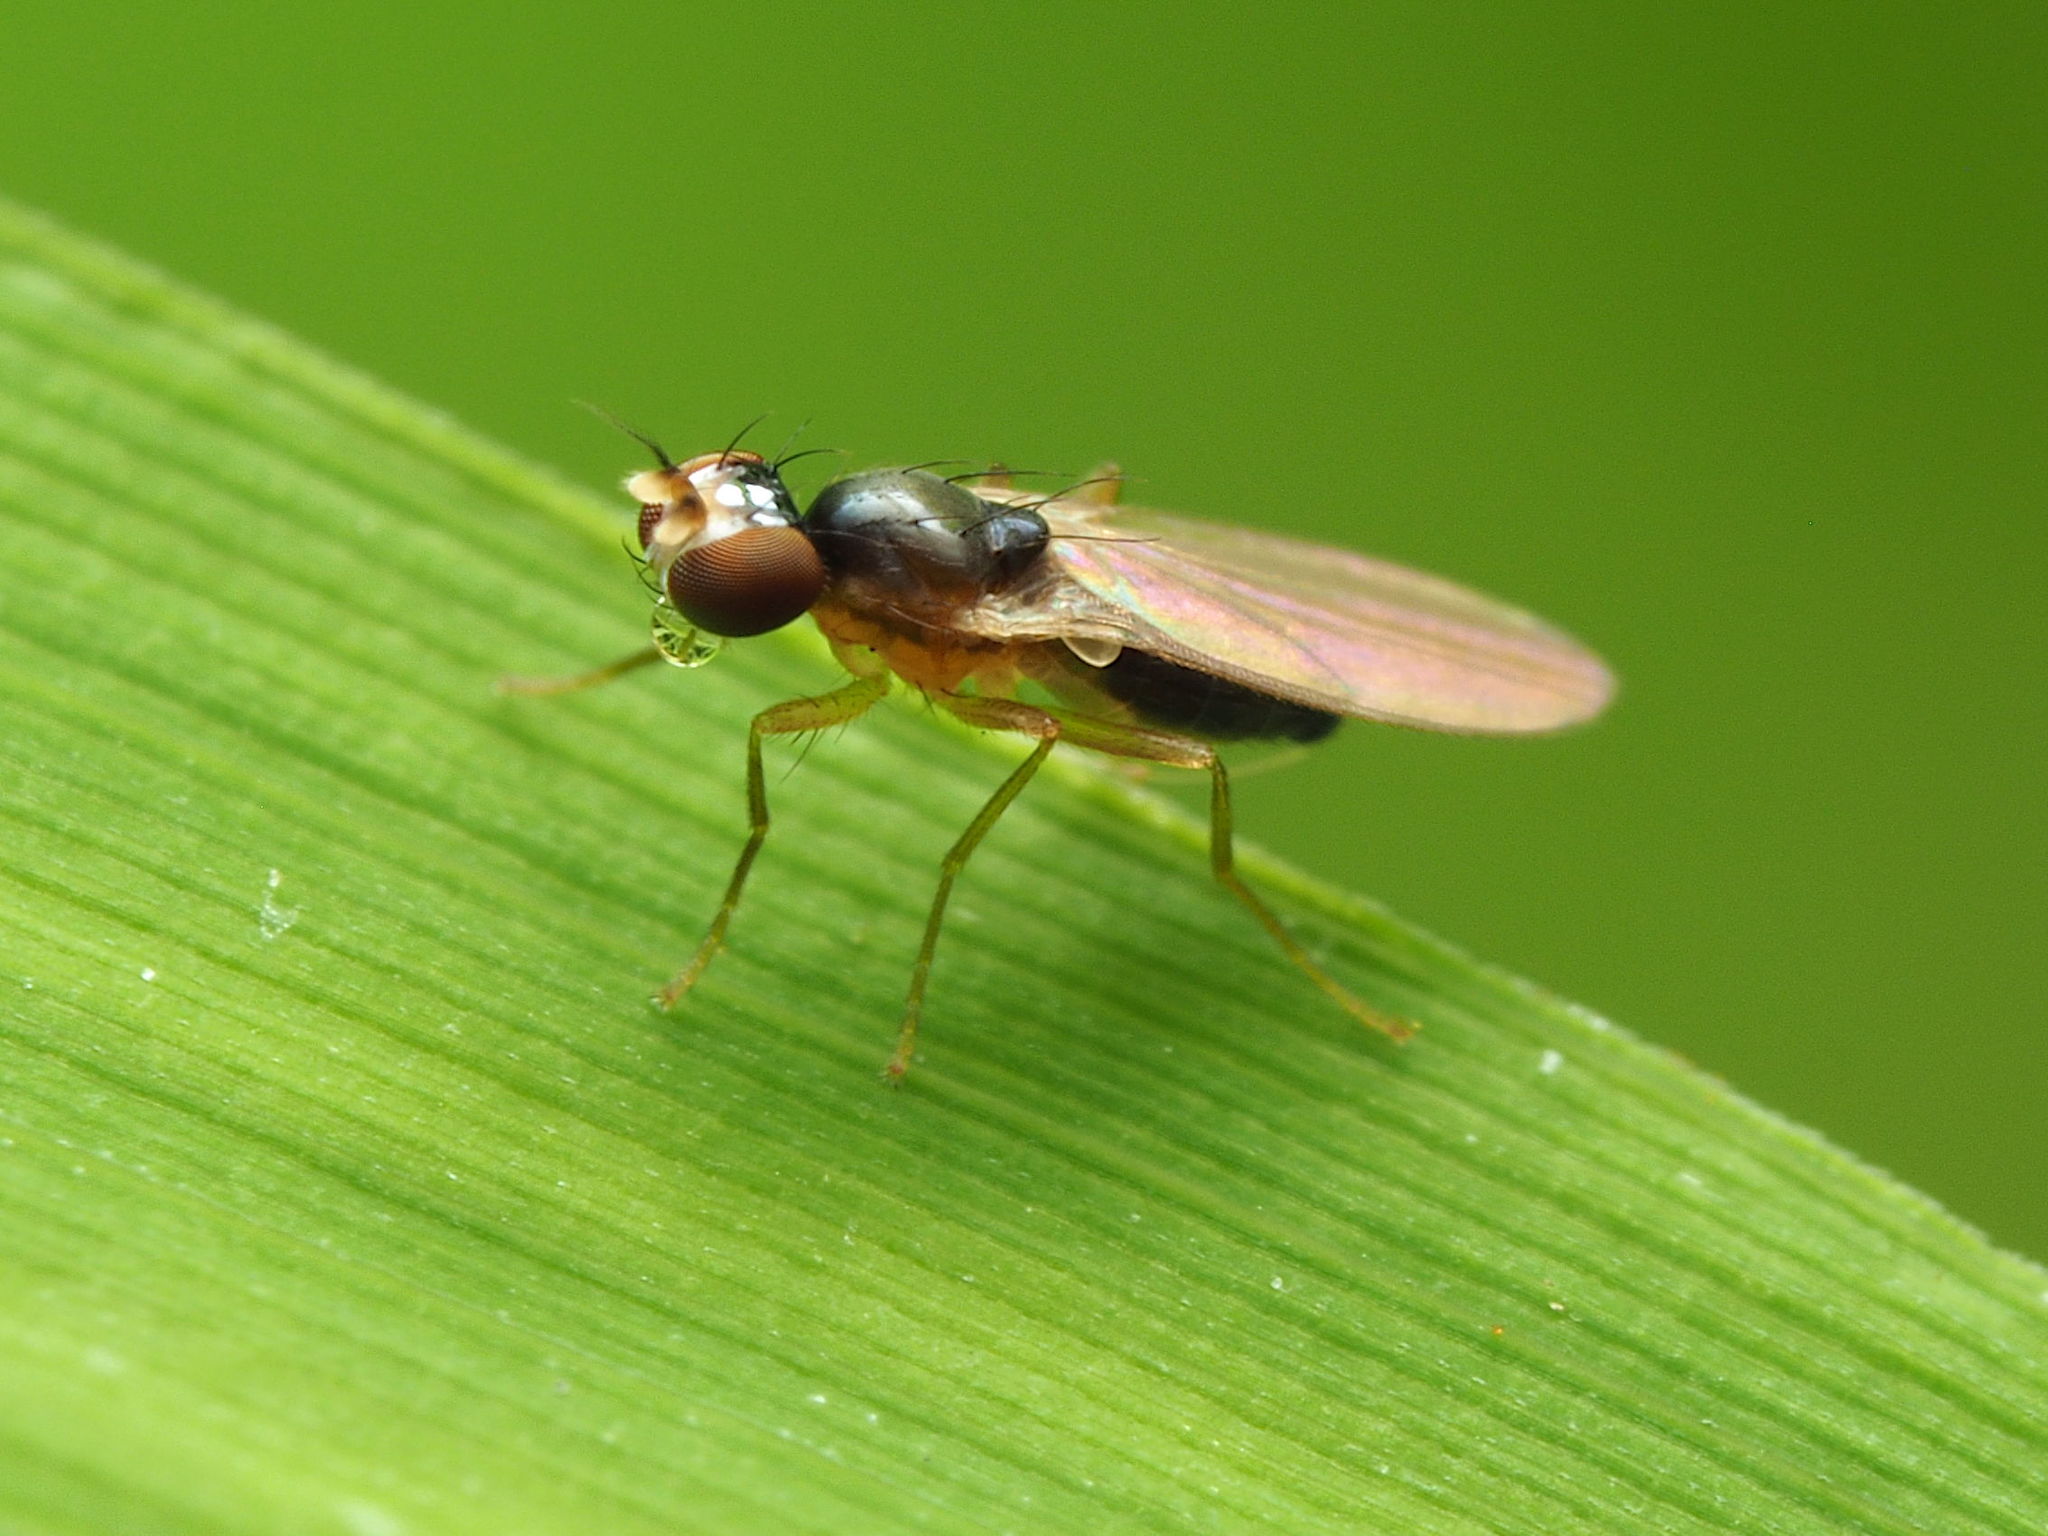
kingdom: Animalia
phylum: Arthropoda
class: Insecta
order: Diptera
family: Anthomyzidae
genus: Mumetopia
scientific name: Mumetopia occipitalis
